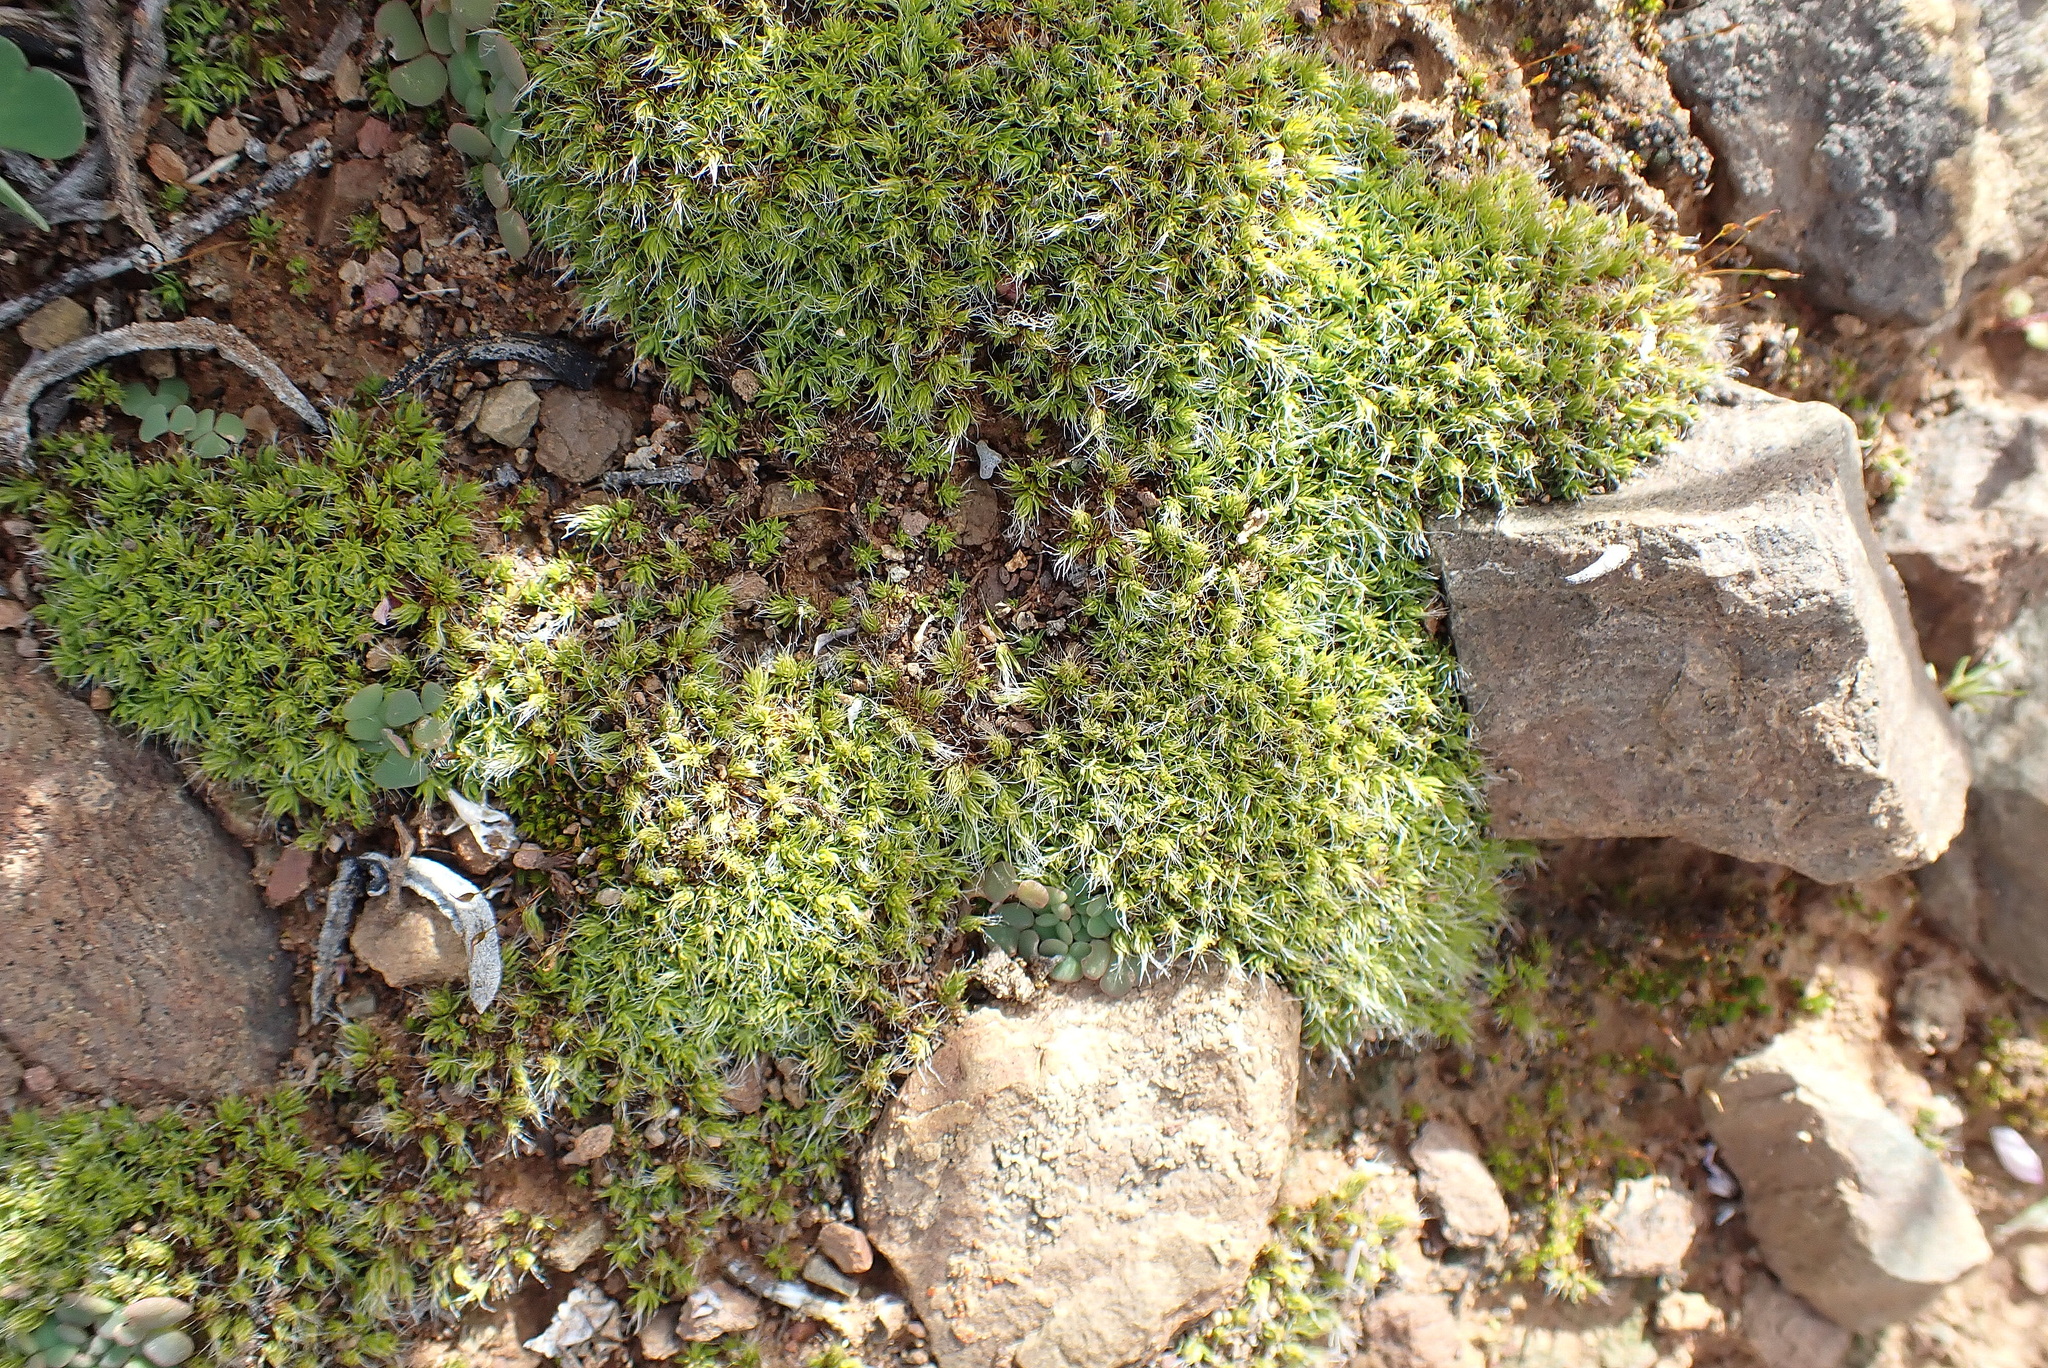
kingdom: Plantae
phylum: Bryophyta
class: Bryopsida
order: Pottiales
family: Pottiaceae
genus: Pseudocrossidium
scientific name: Pseudocrossidium crinitum
